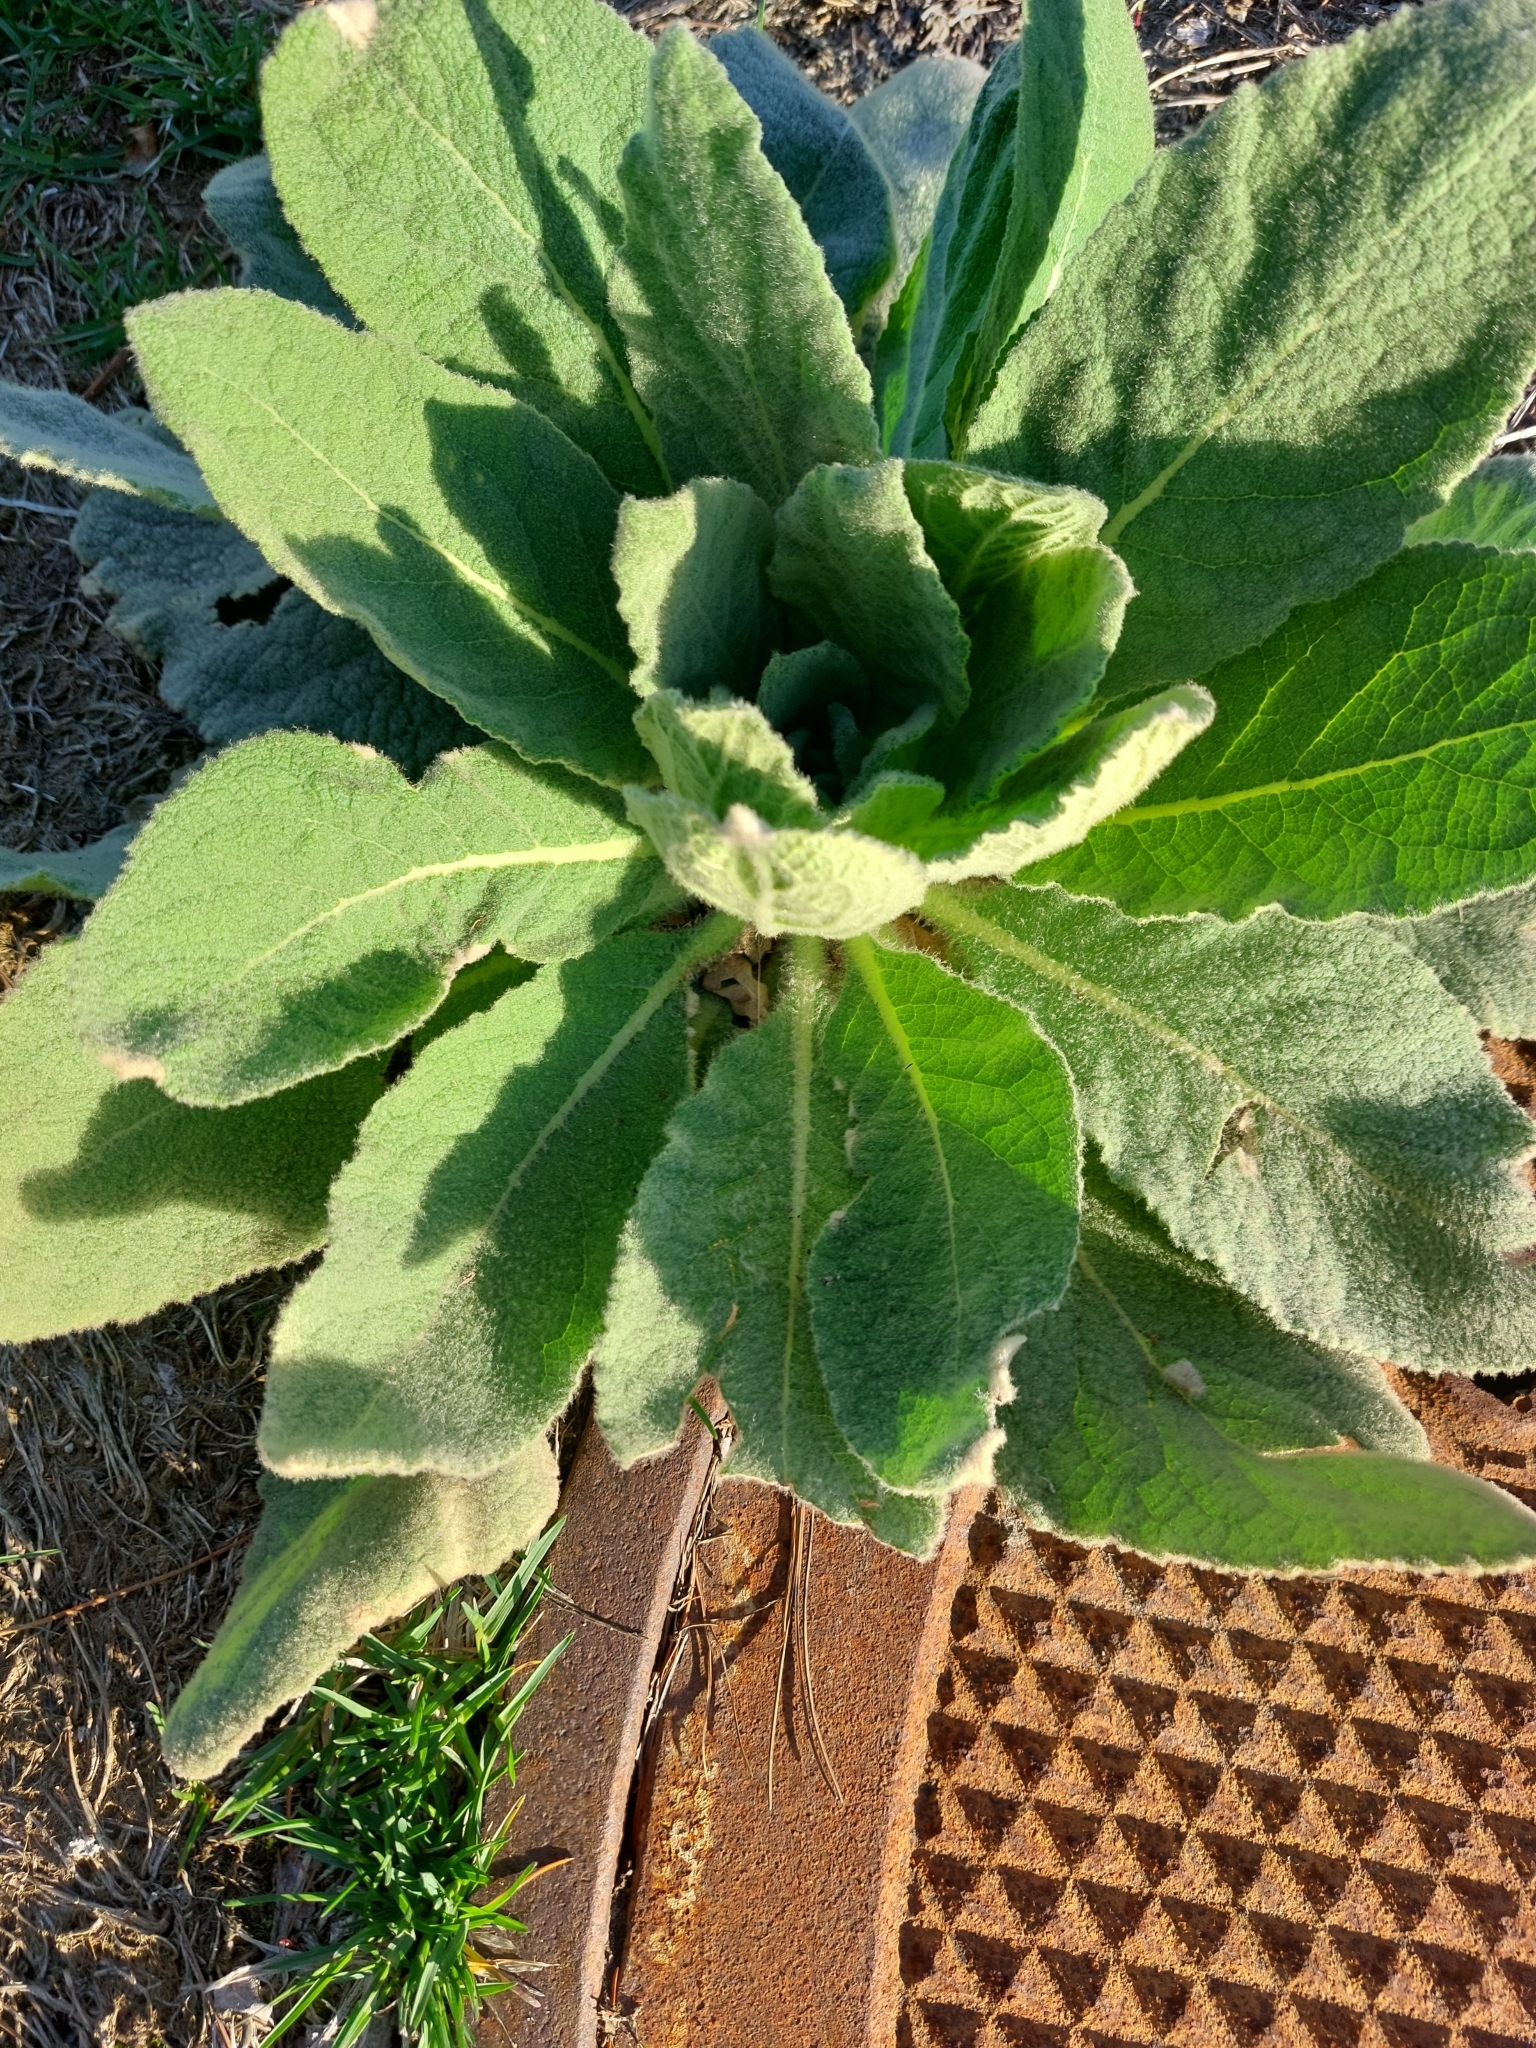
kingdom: Plantae
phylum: Tracheophyta
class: Magnoliopsida
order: Lamiales
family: Scrophulariaceae
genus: Verbascum
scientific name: Verbascum thapsus
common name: Common mullein
